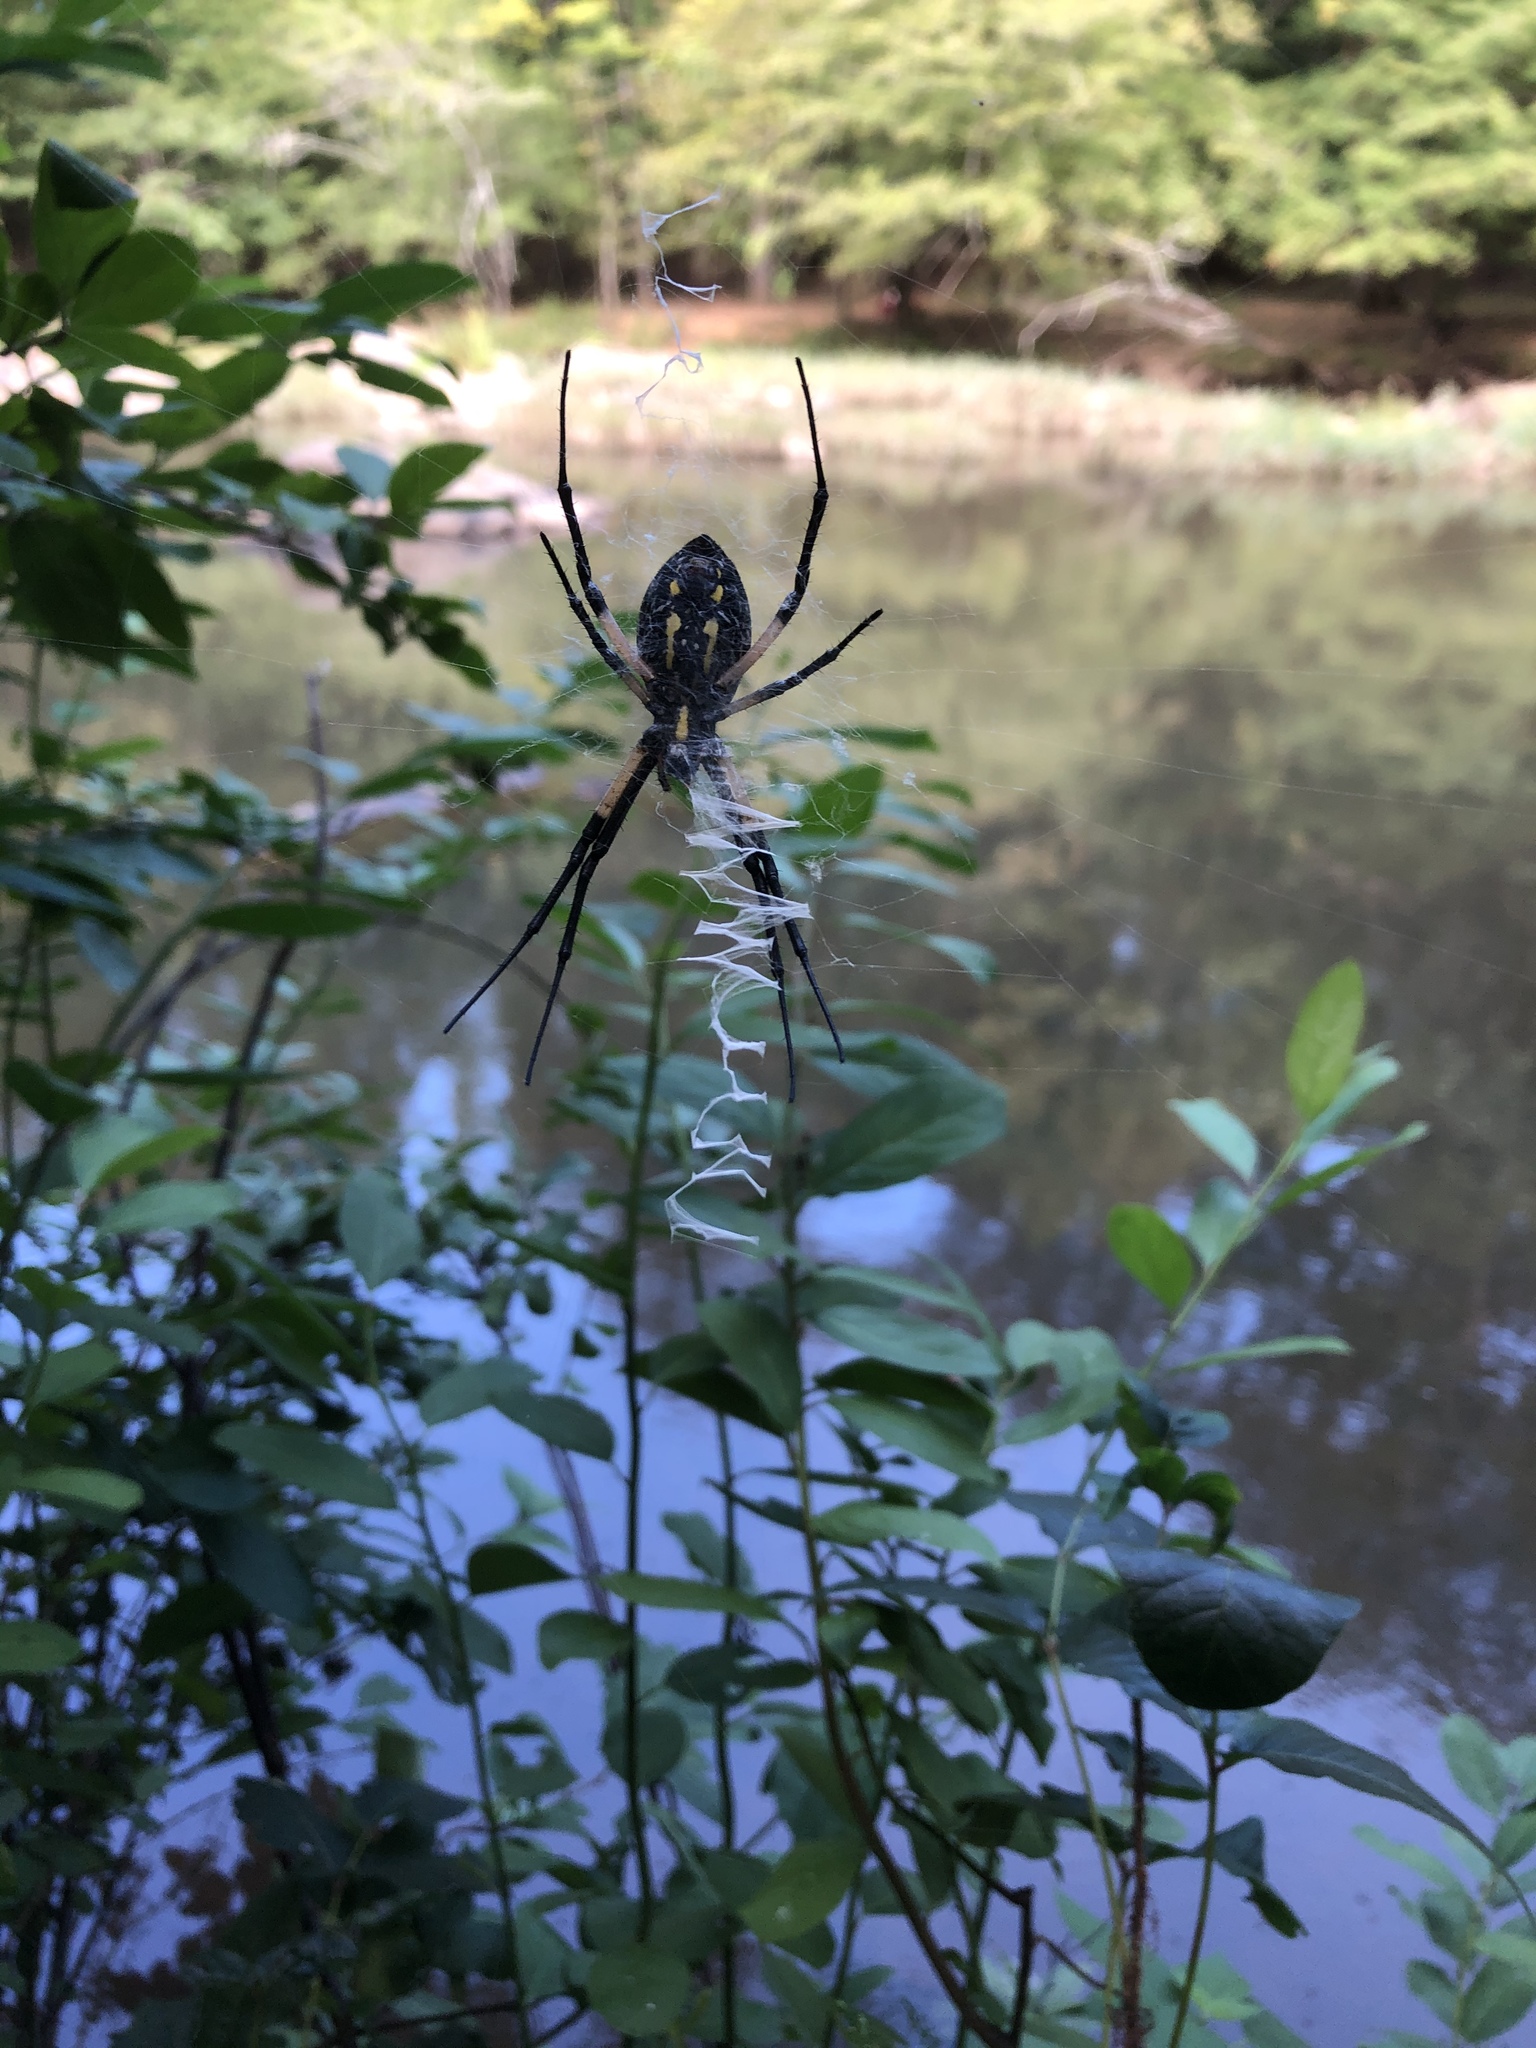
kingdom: Animalia
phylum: Arthropoda
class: Arachnida
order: Araneae
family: Araneidae
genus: Argiope
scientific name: Argiope aurantia
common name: Orb weavers
